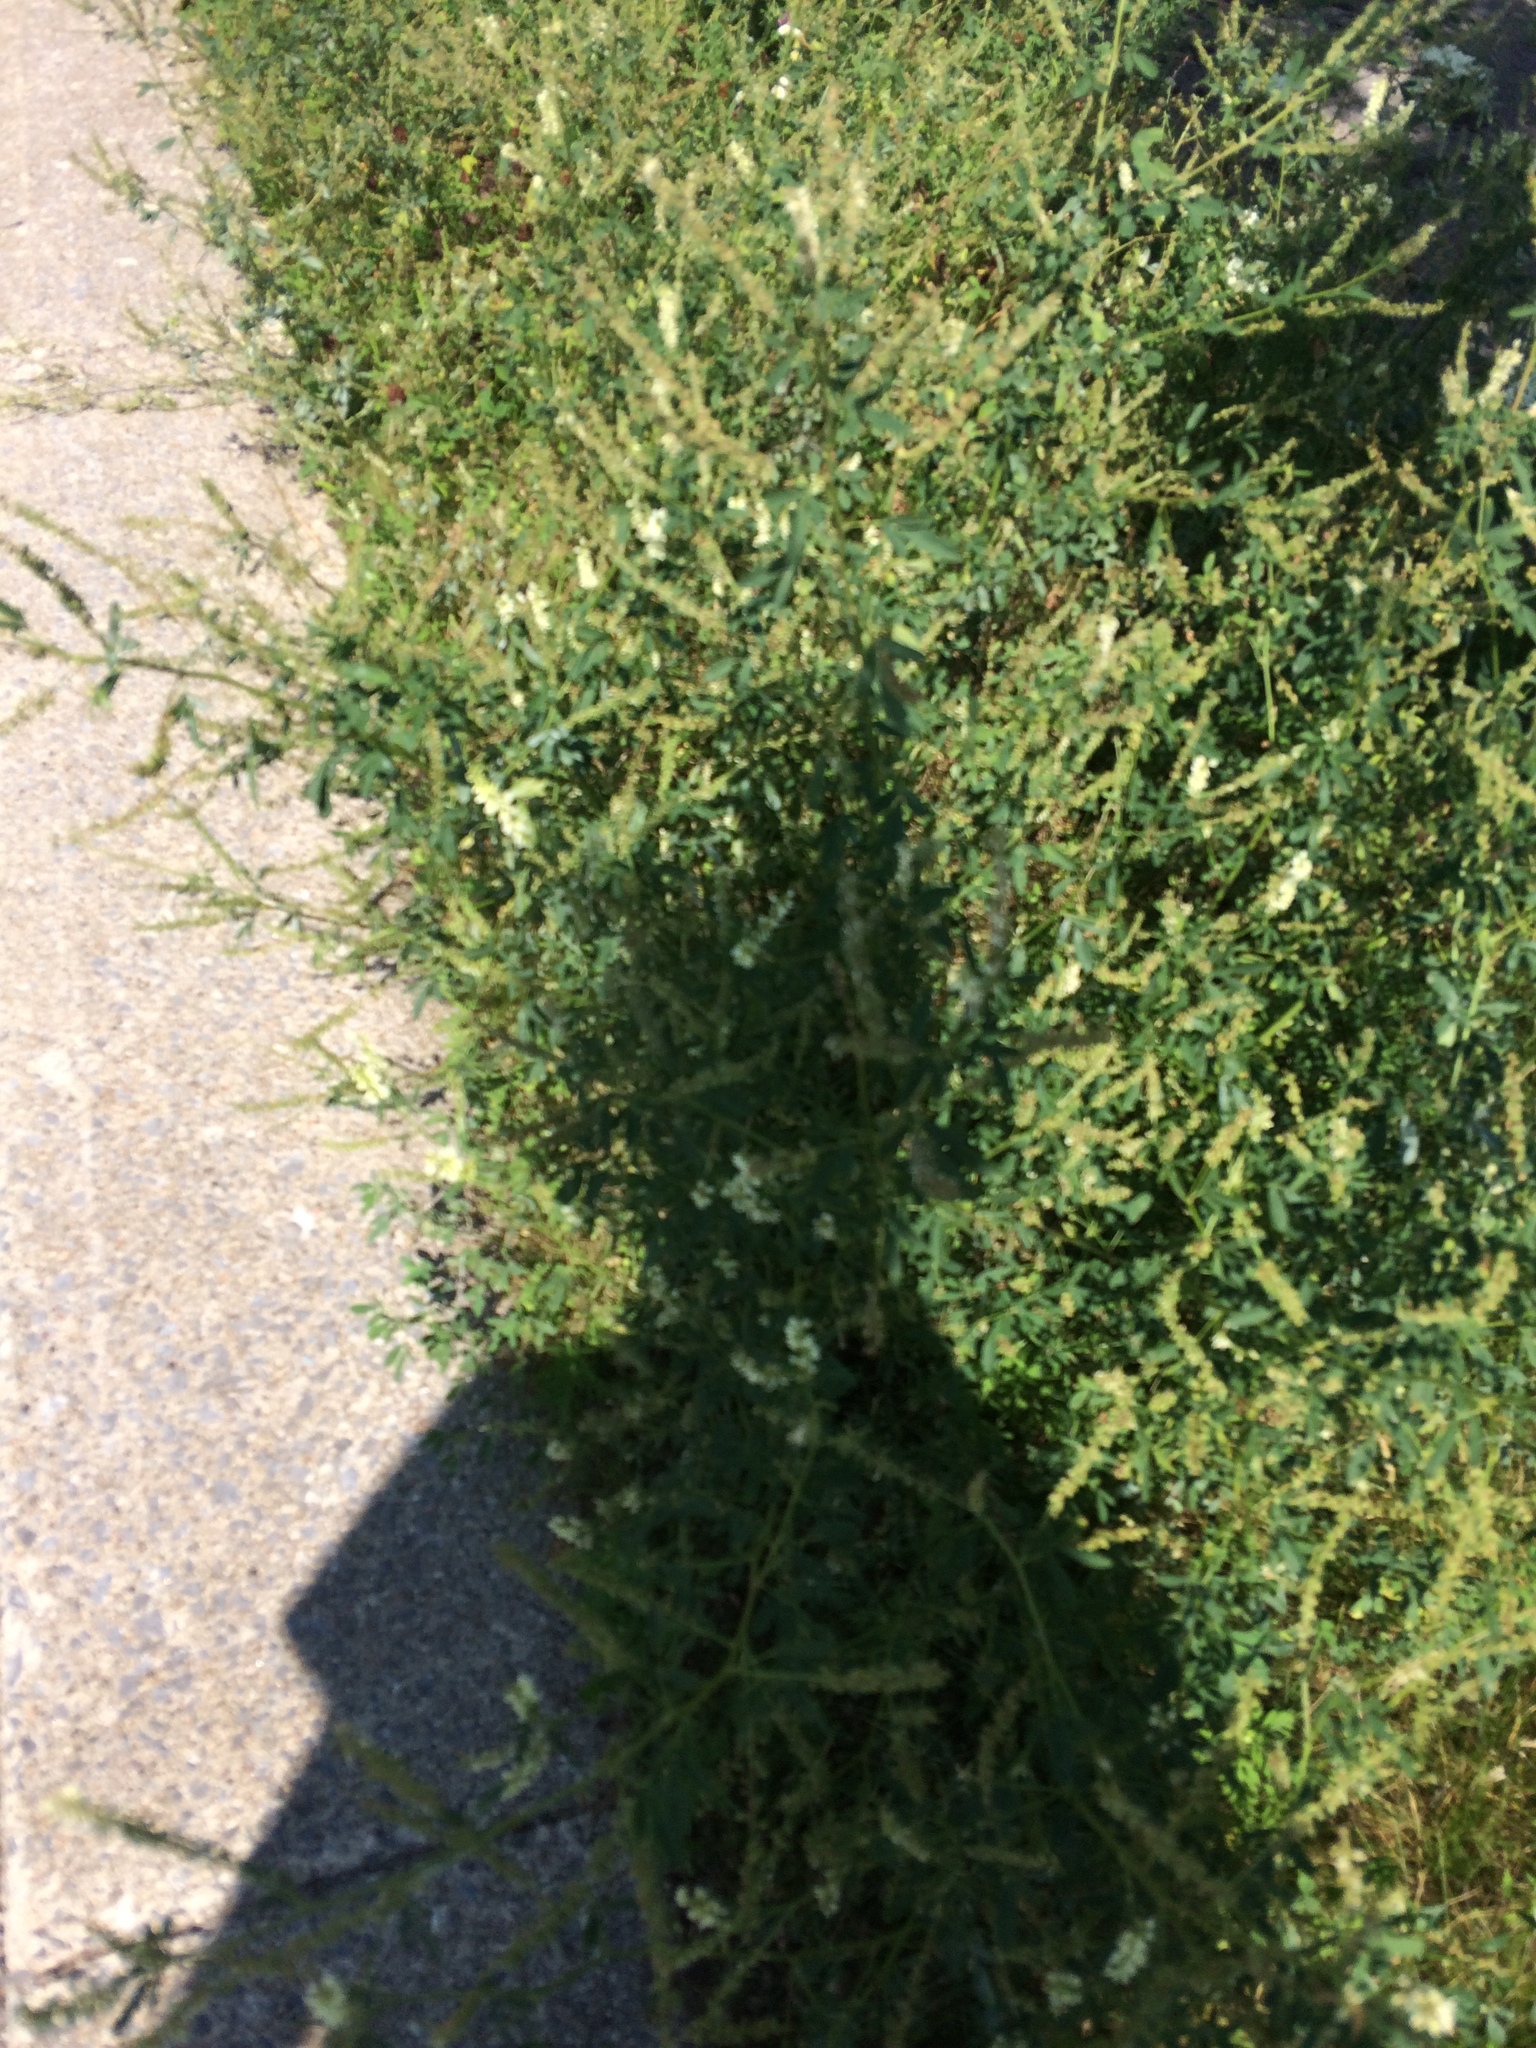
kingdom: Plantae
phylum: Tracheophyta
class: Magnoliopsida
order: Fabales
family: Fabaceae
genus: Melilotus
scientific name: Melilotus albus
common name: White melilot
